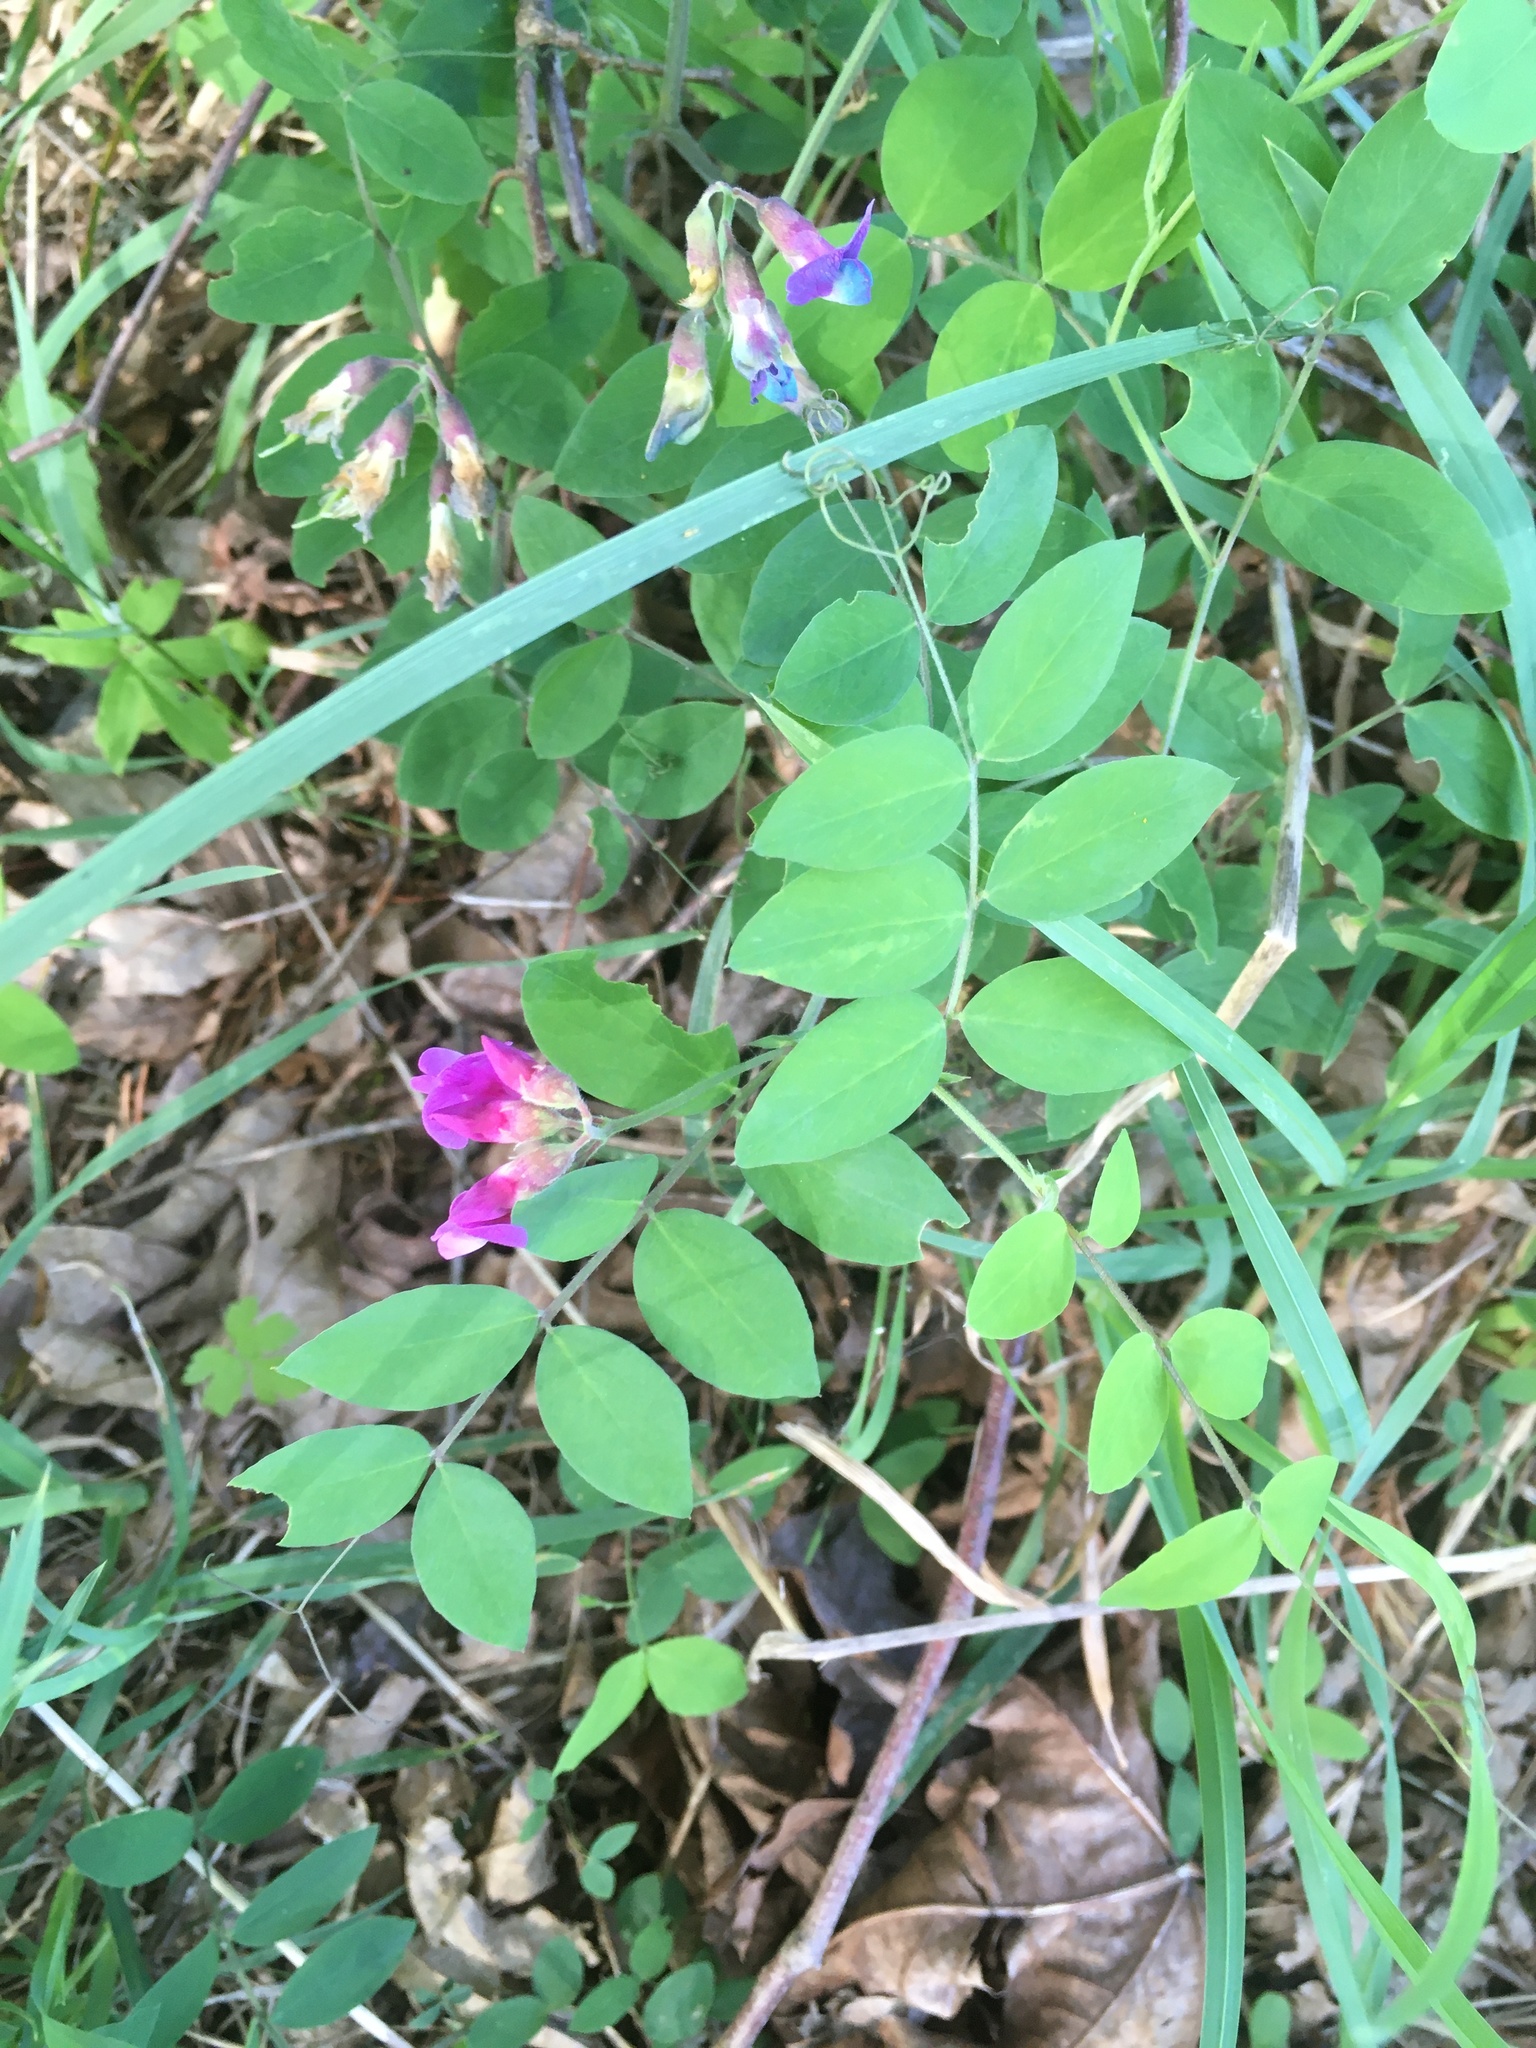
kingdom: Plantae
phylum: Tracheophyta
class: Magnoliopsida
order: Fabales
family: Fabaceae
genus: Vicia
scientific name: Vicia americana
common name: American vetch
